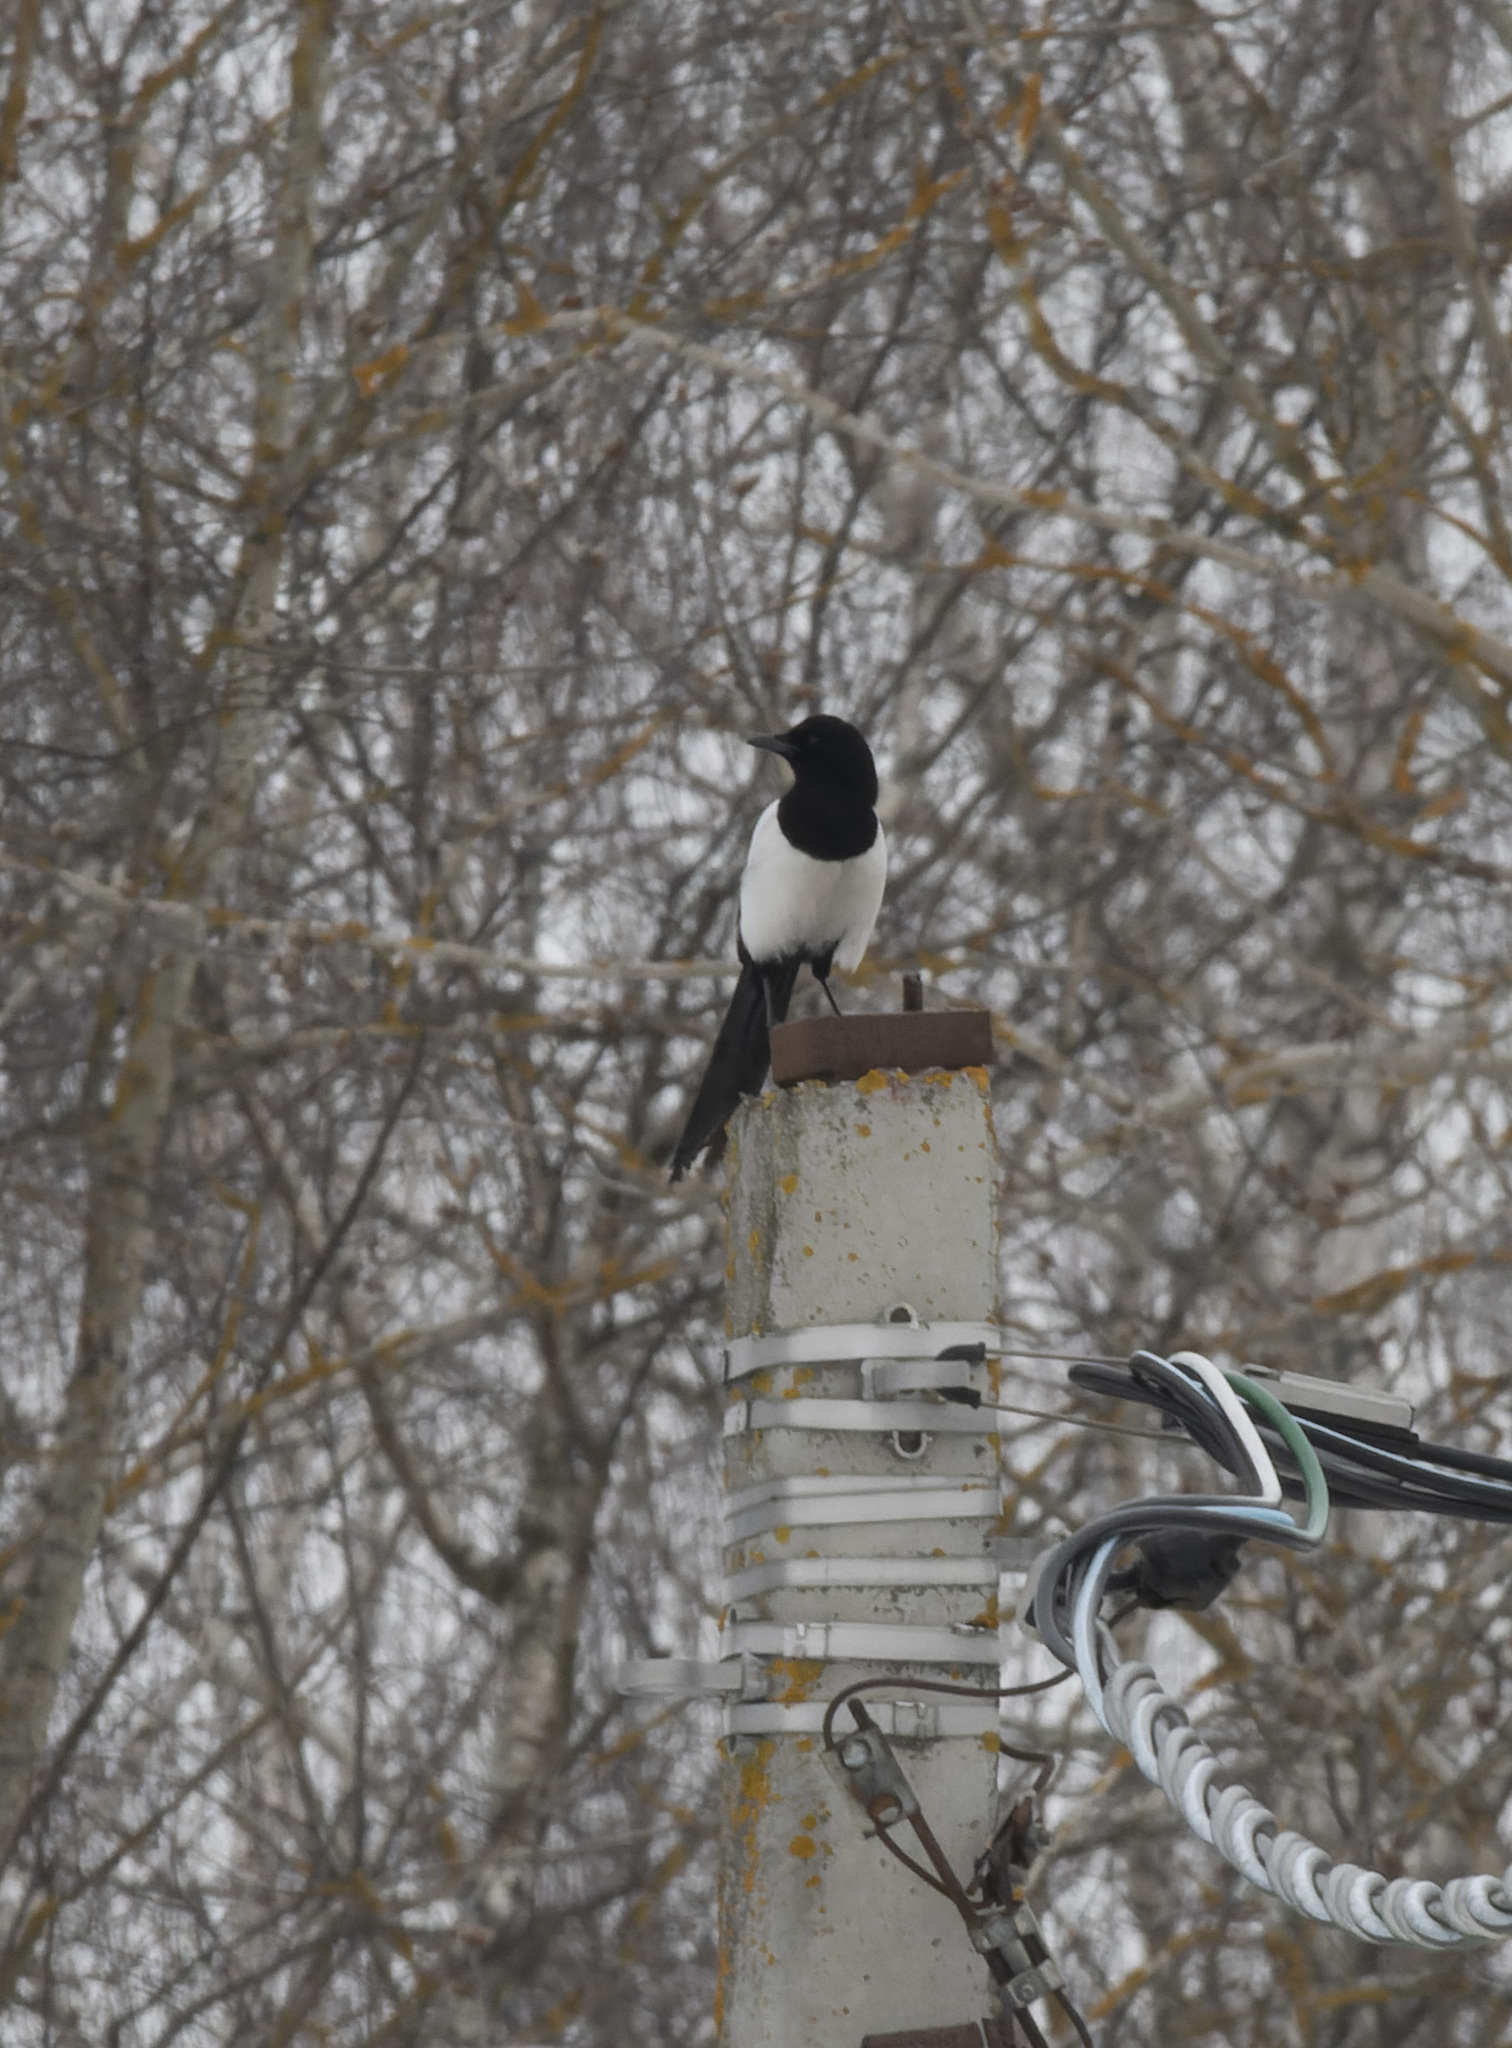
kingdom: Animalia
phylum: Chordata
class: Aves
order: Passeriformes
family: Corvidae
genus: Pica
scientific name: Pica pica
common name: Eurasian magpie
